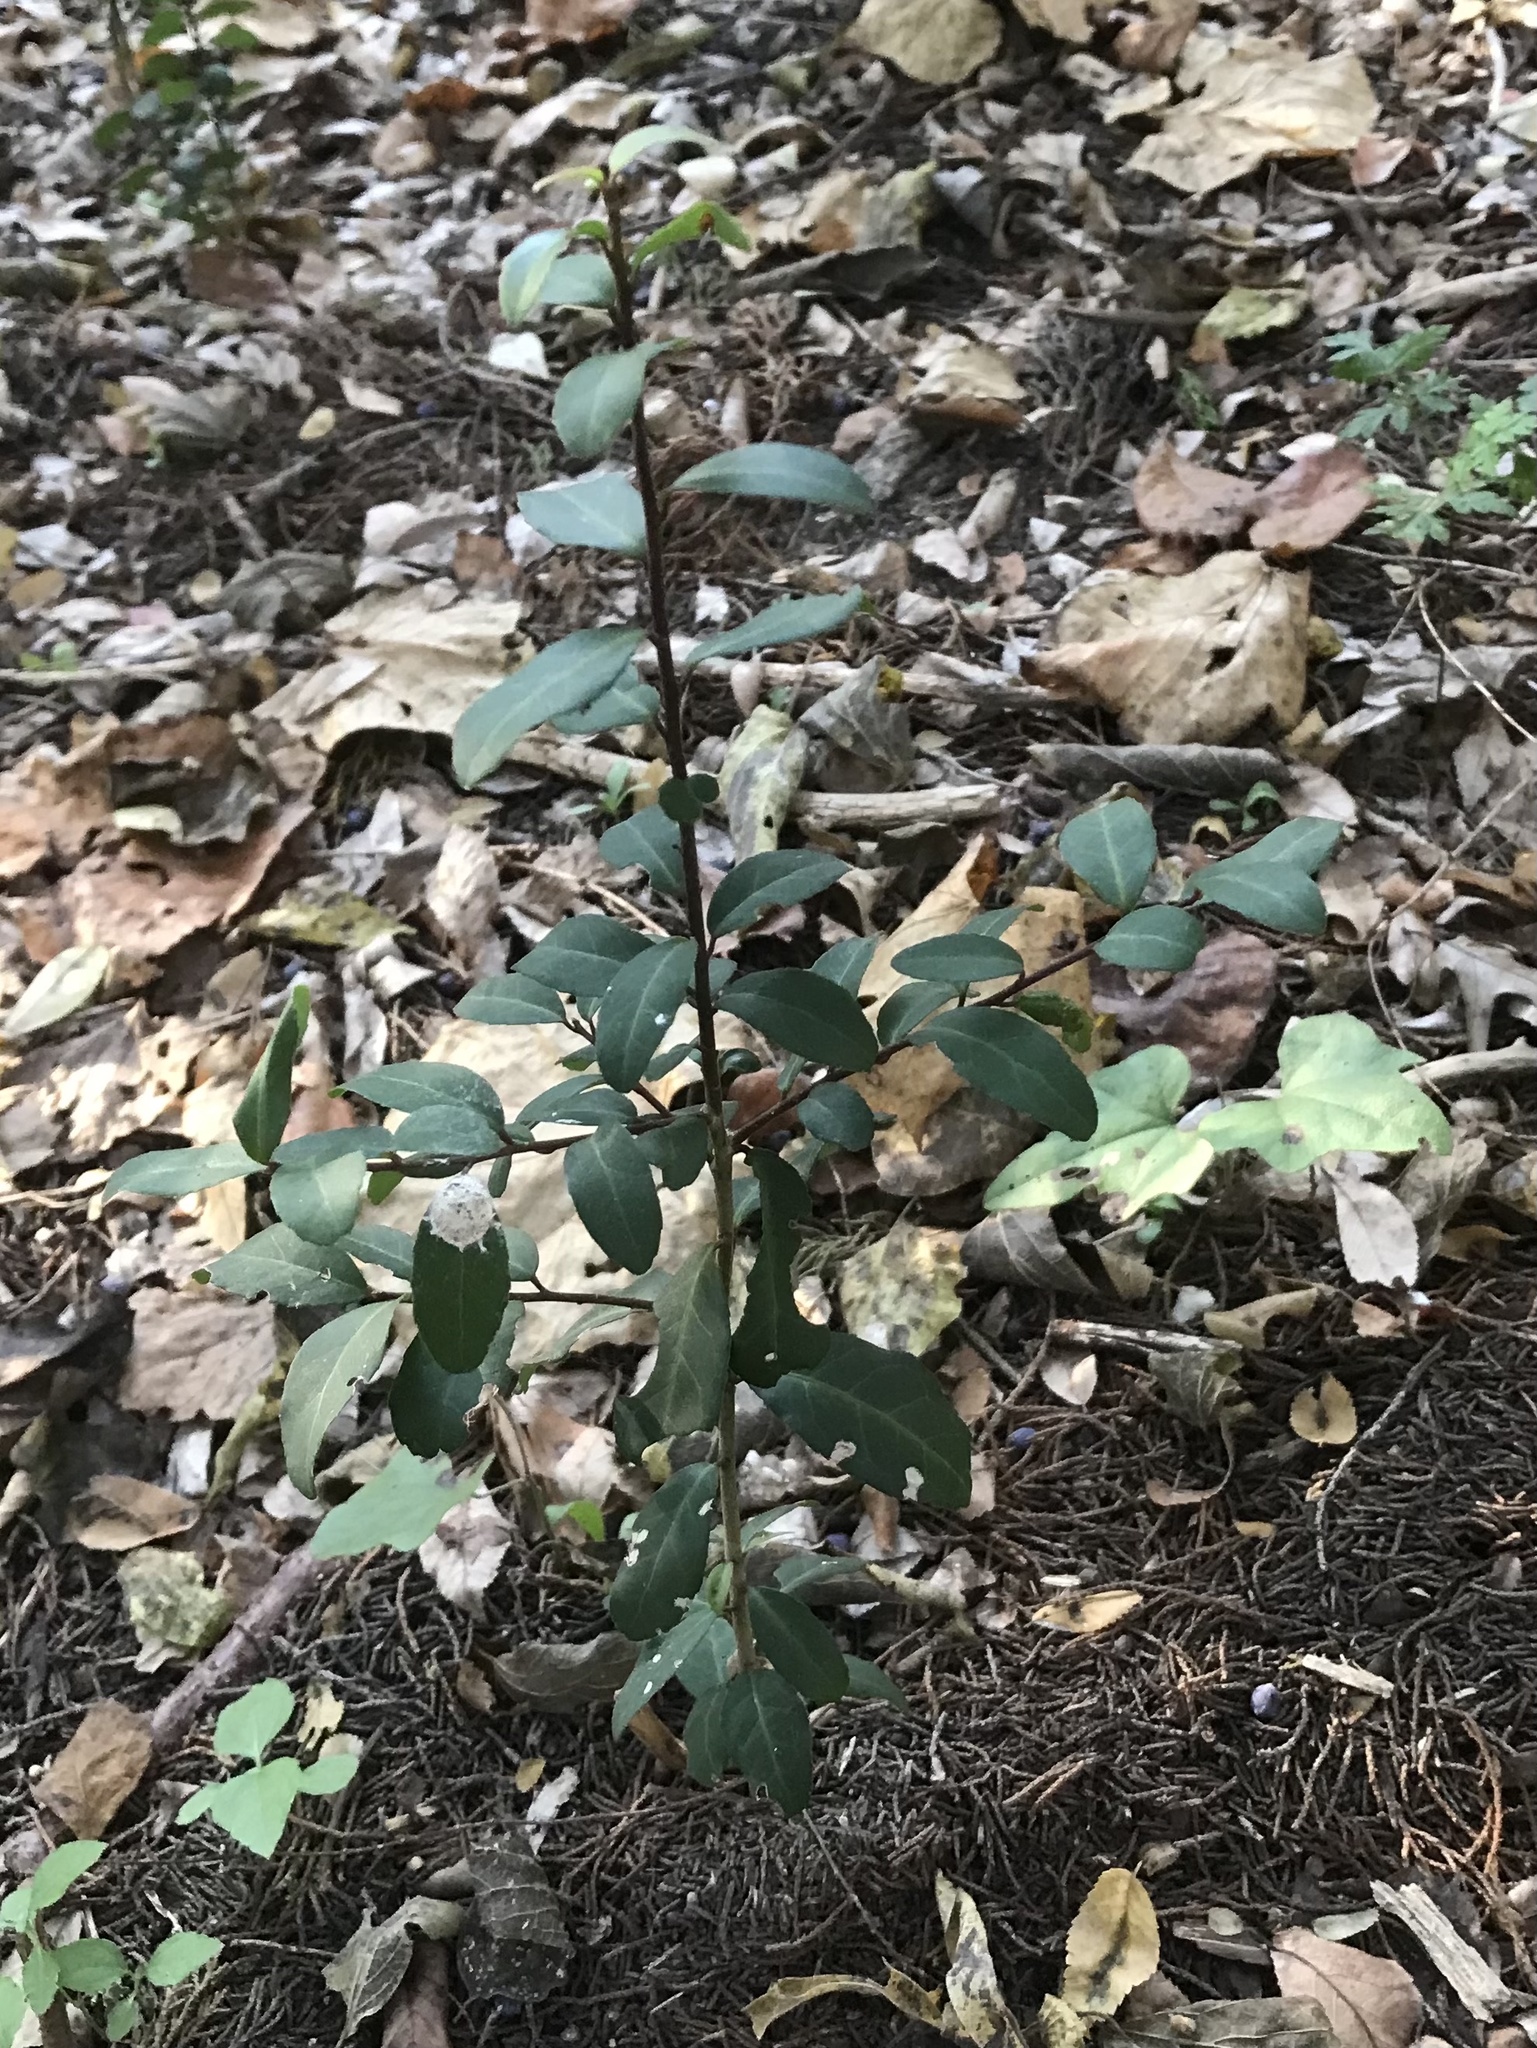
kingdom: Plantae
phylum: Tracheophyta
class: Magnoliopsida
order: Aquifoliales
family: Aquifoliaceae
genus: Ilex
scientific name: Ilex vomitoria
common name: Yaupon holly
